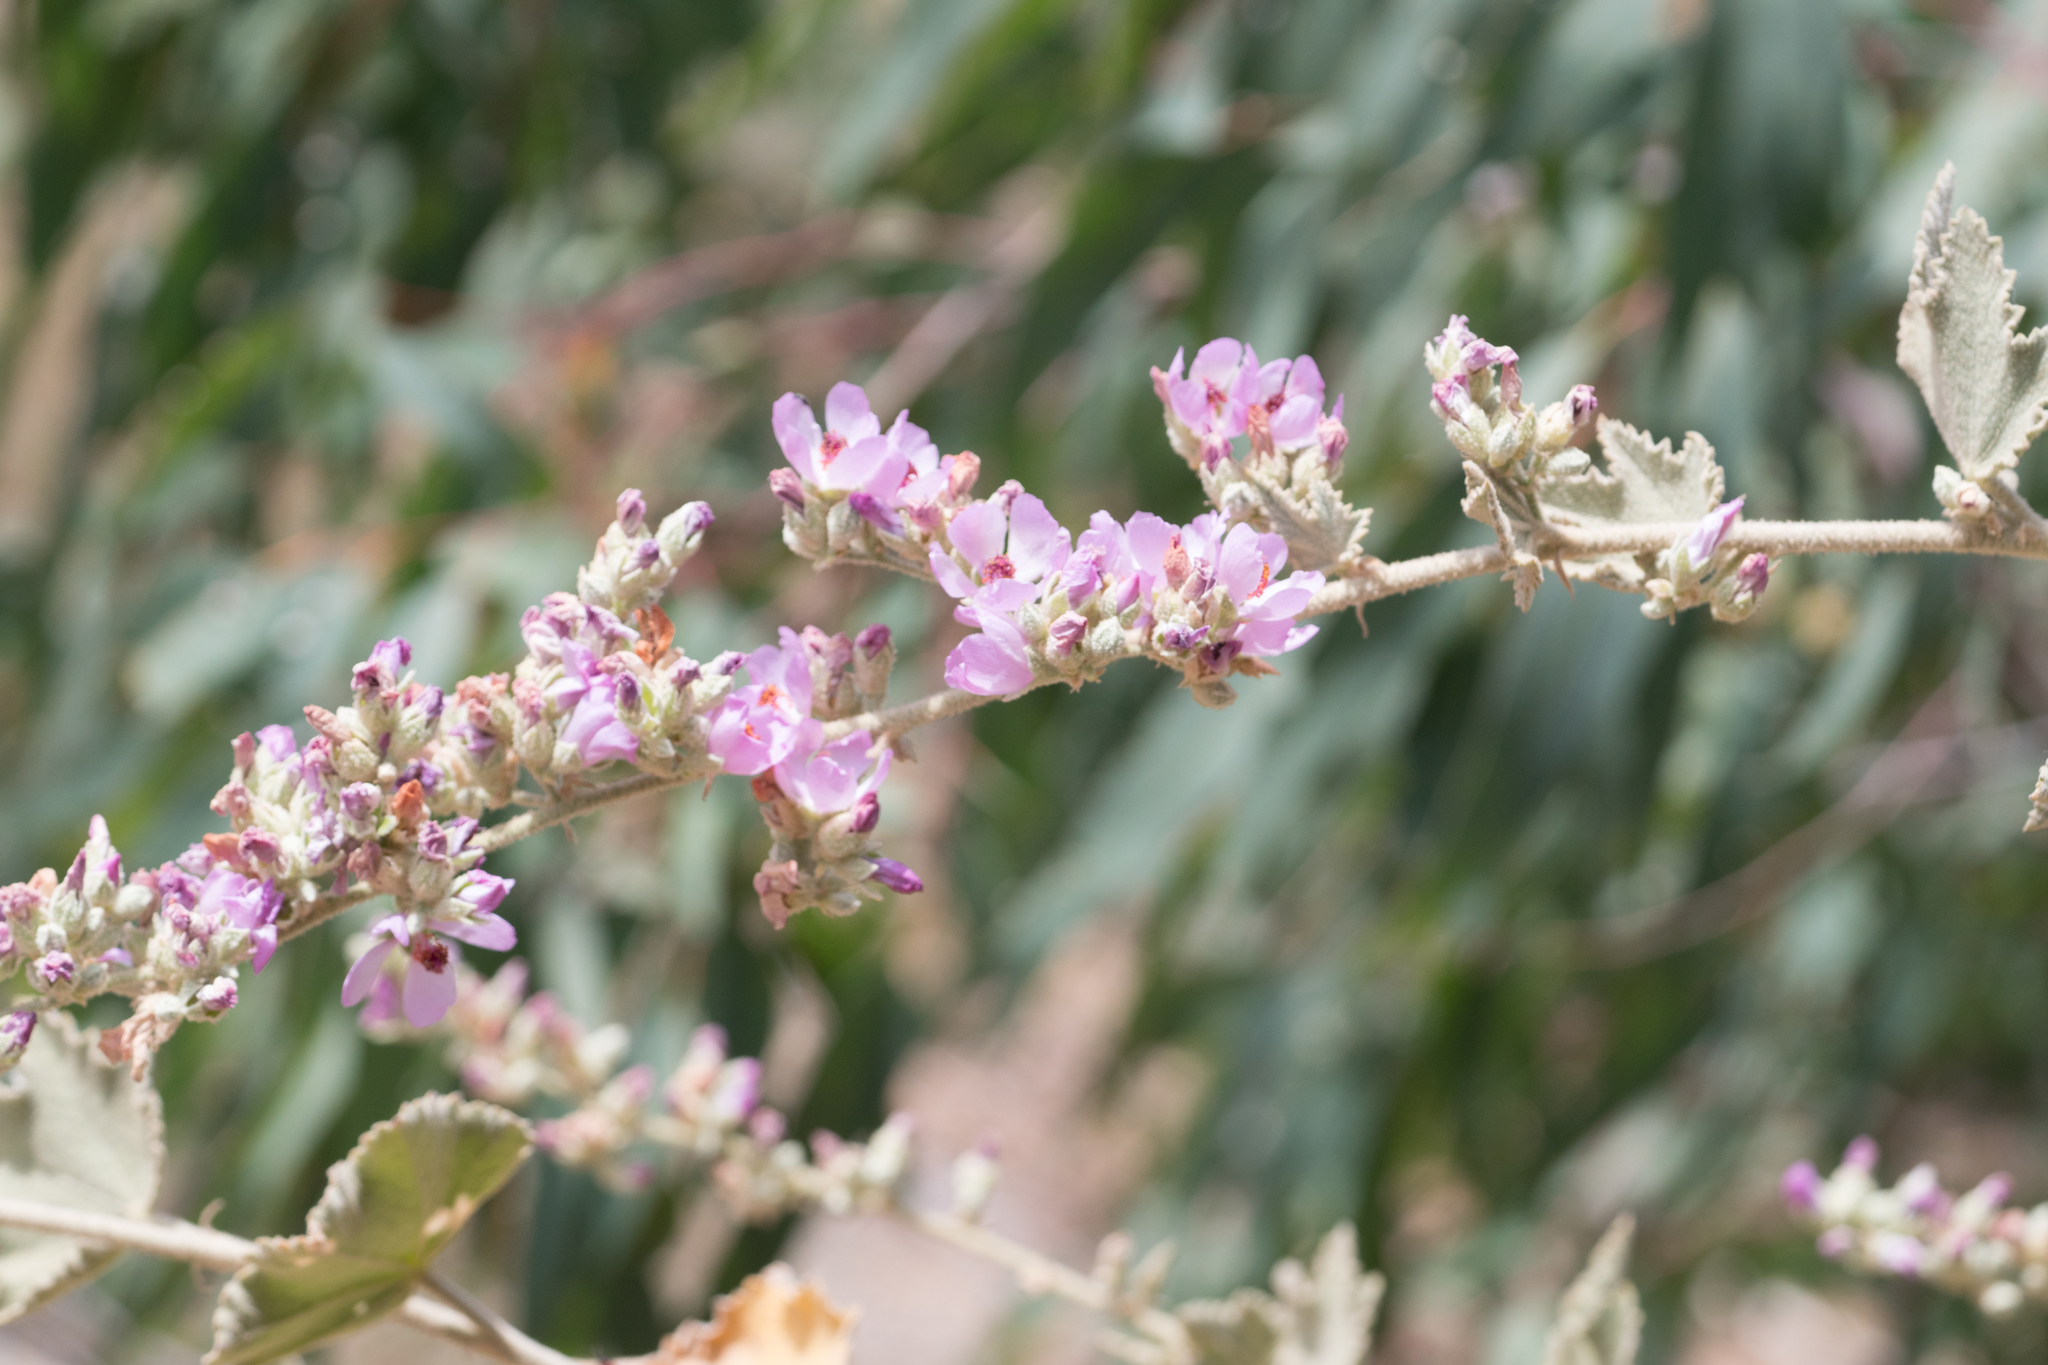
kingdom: Plantae
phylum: Tracheophyta
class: Magnoliopsida
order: Malvales
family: Malvaceae
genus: Malacothamnus
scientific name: Malacothamnus davidsonii
